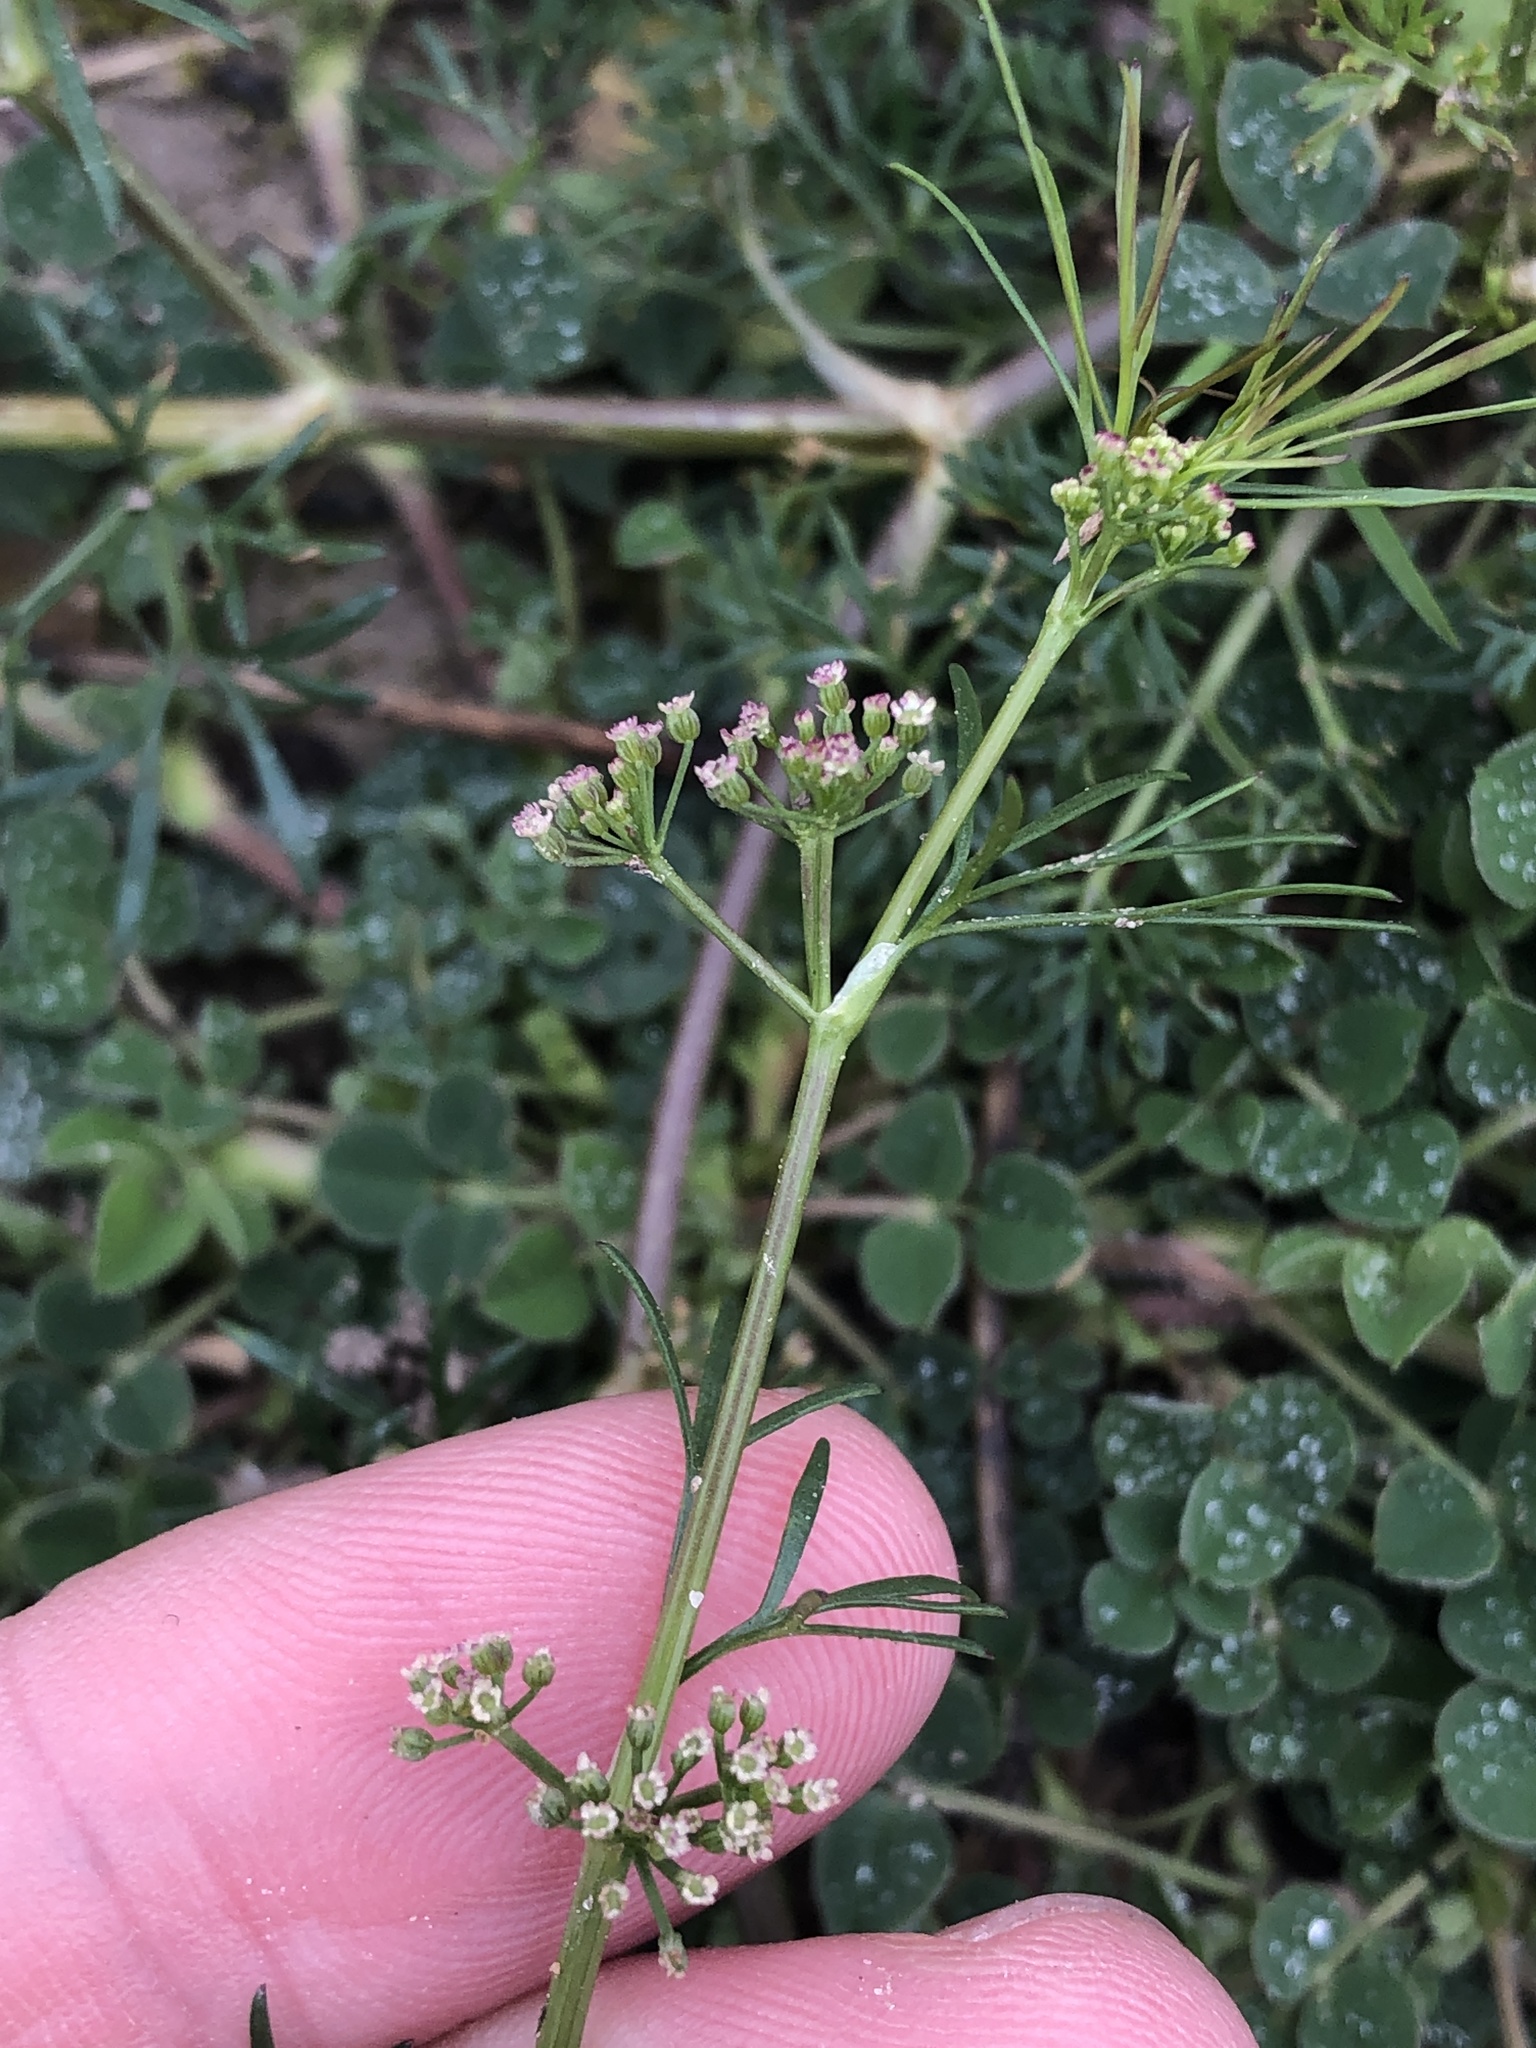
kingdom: Plantae
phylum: Tracheophyta
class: Magnoliopsida
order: Apiales
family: Apiaceae
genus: Cyclospermum
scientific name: Cyclospermum leptophyllum
